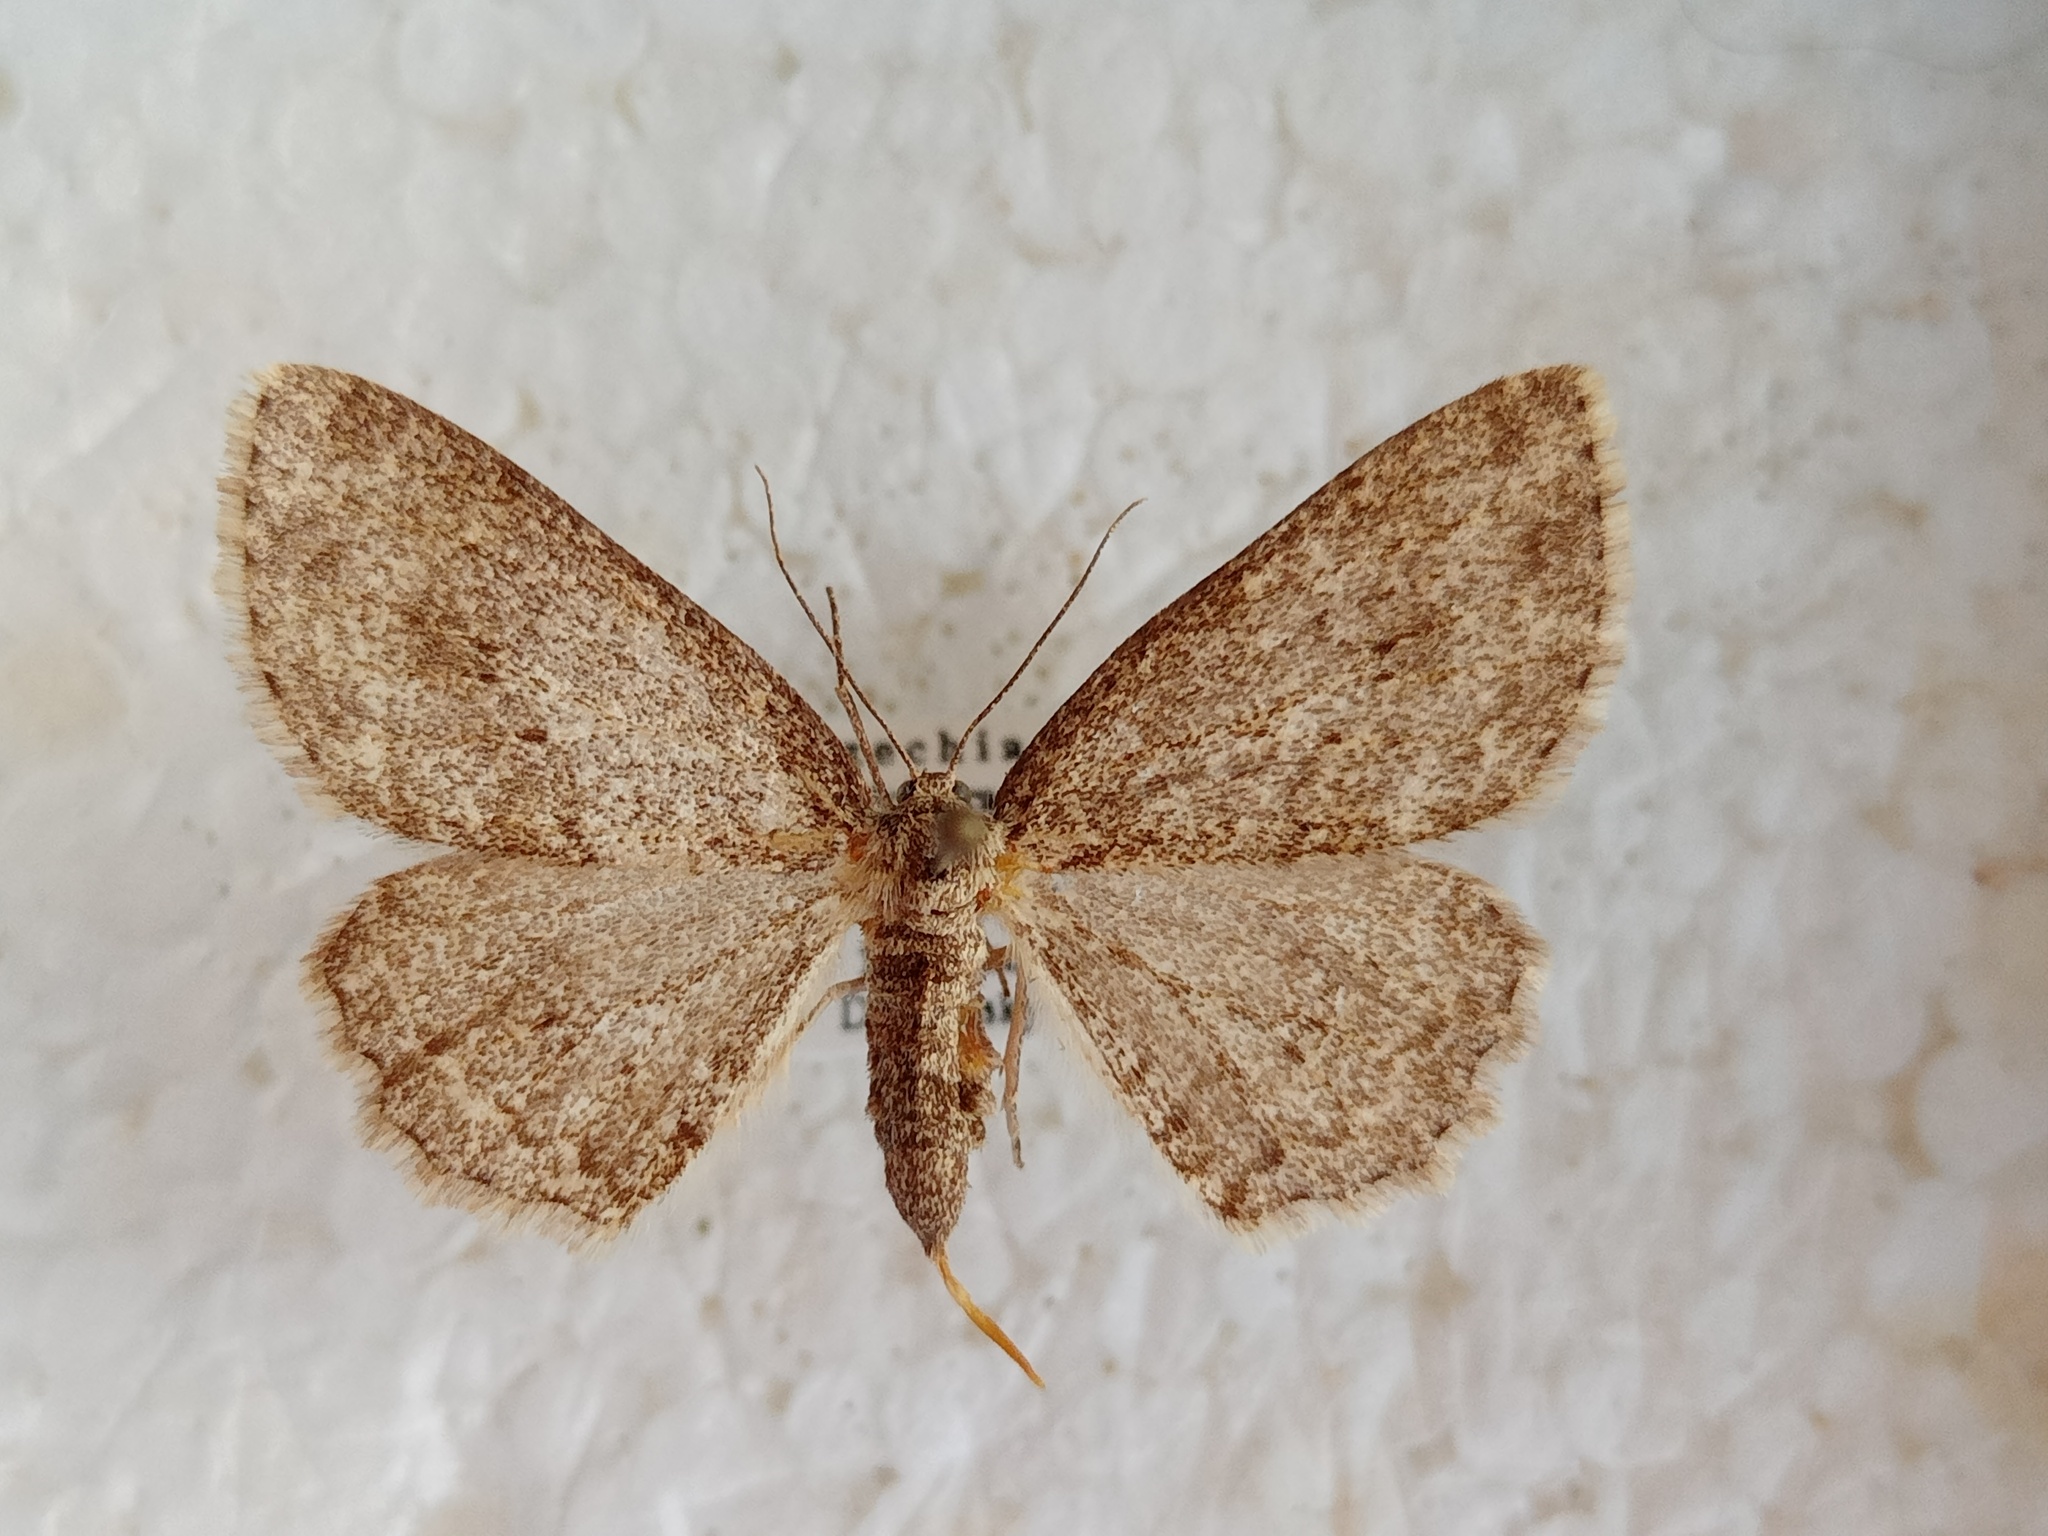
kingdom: Animalia
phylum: Arthropoda
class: Insecta
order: Lepidoptera
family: Geometridae
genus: Ectropis
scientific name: Ectropis crepuscularia
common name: Engrailed
